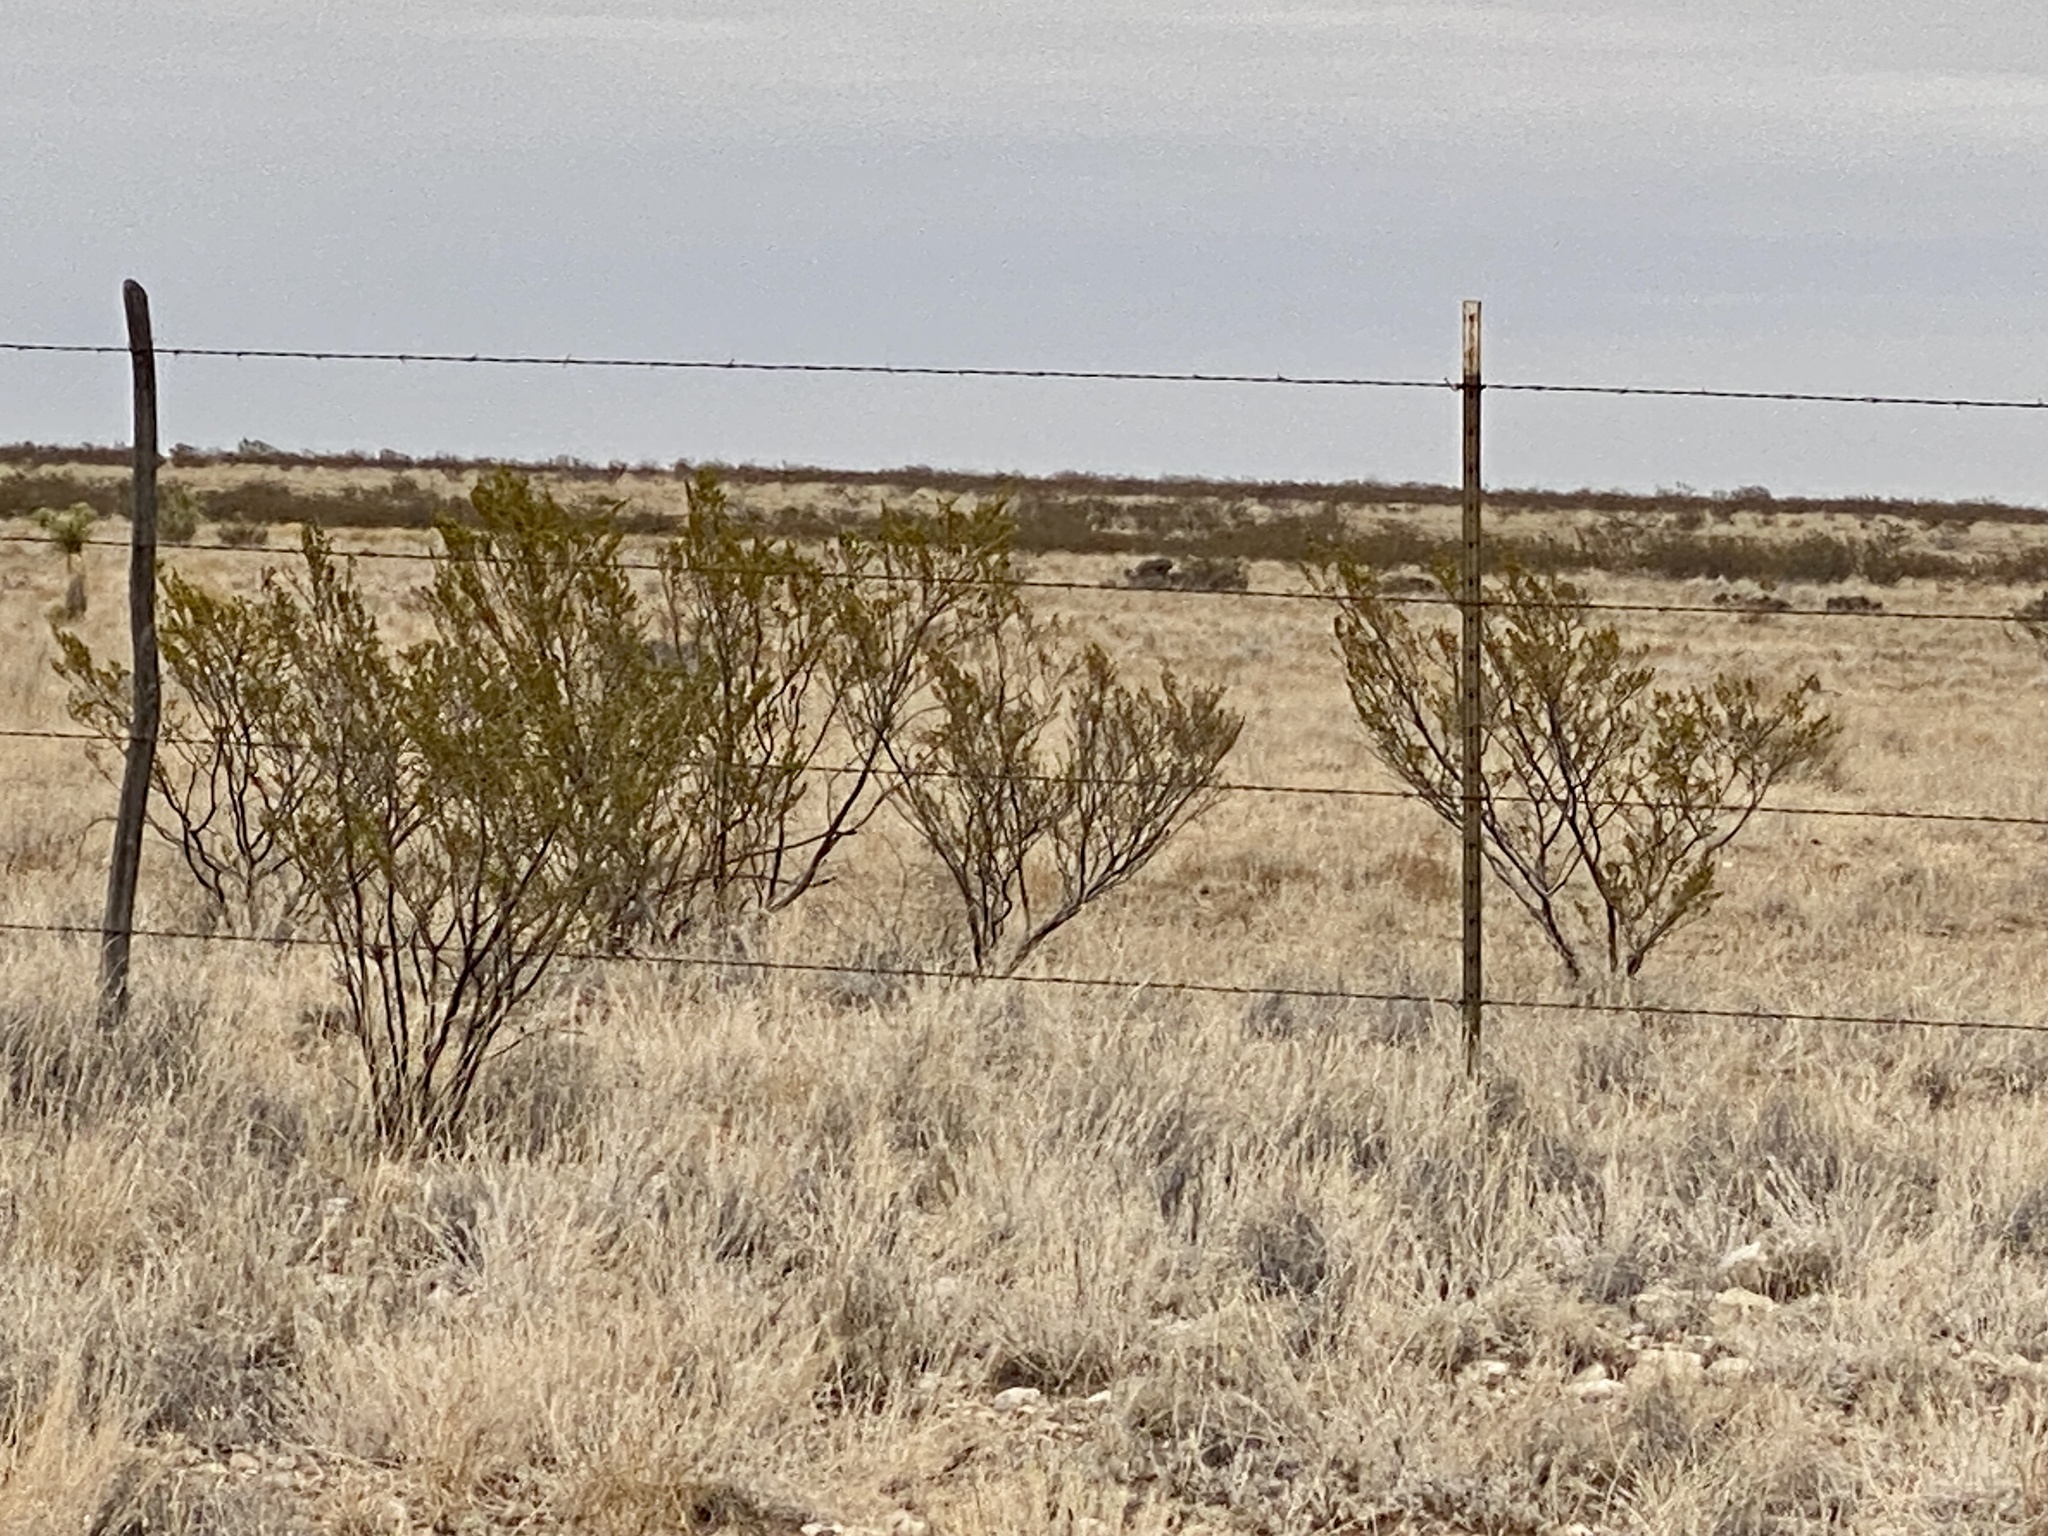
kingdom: Plantae
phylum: Tracheophyta
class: Magnoliopsida
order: Zygophyllales
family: Zygophyllaceae
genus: Larrea
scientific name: Larrea tridentata
